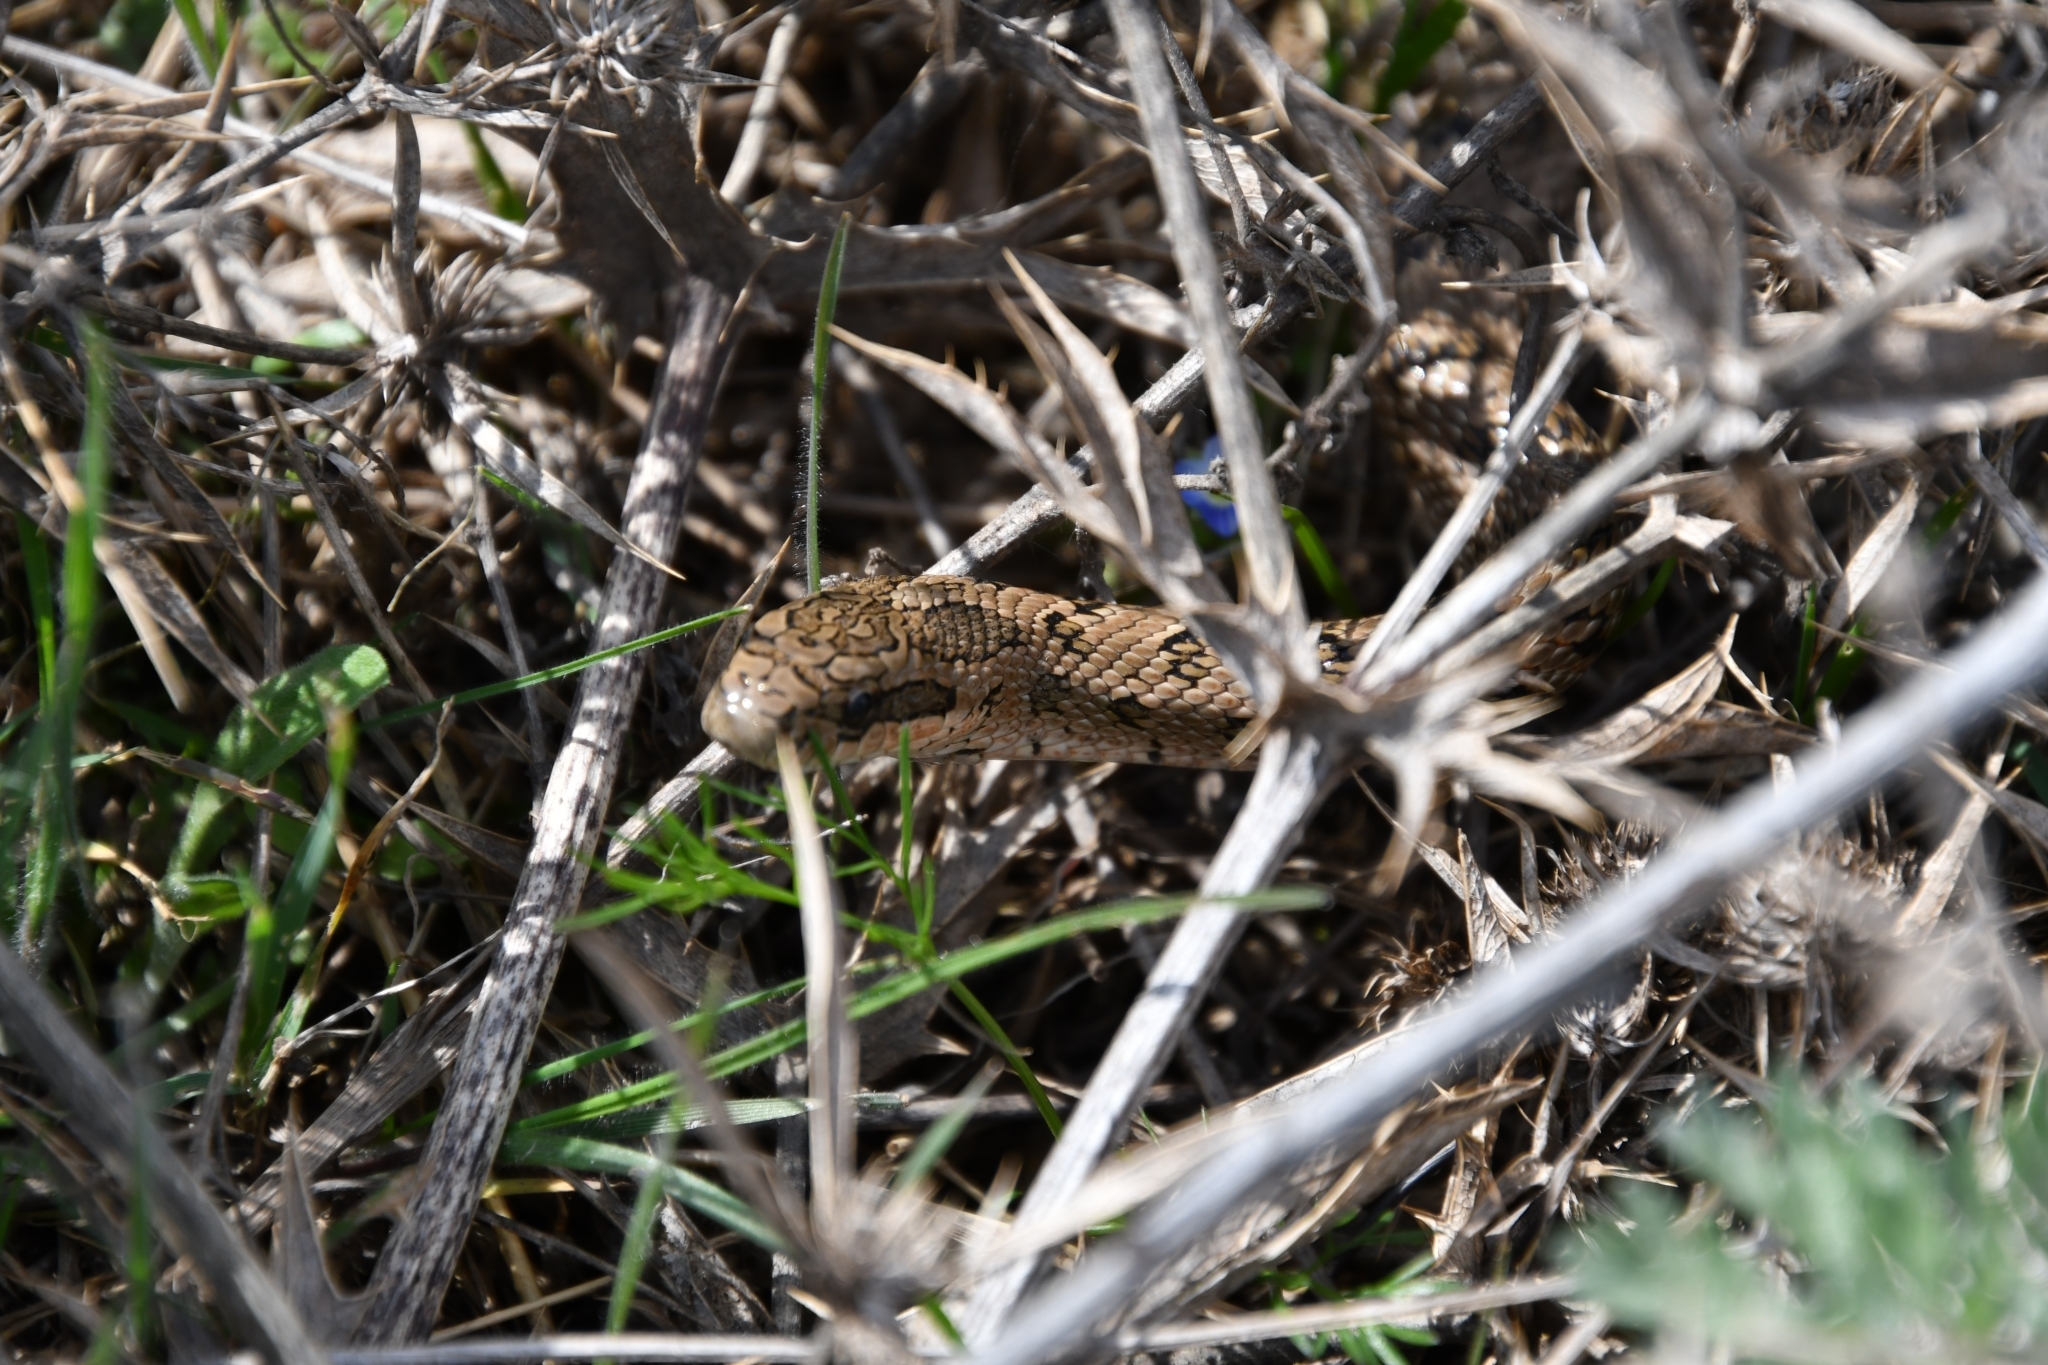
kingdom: Animalia
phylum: Chordata
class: Squamata
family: Colubridae
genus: Elaphe
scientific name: Elaphe dione
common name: Dione ratsnake
